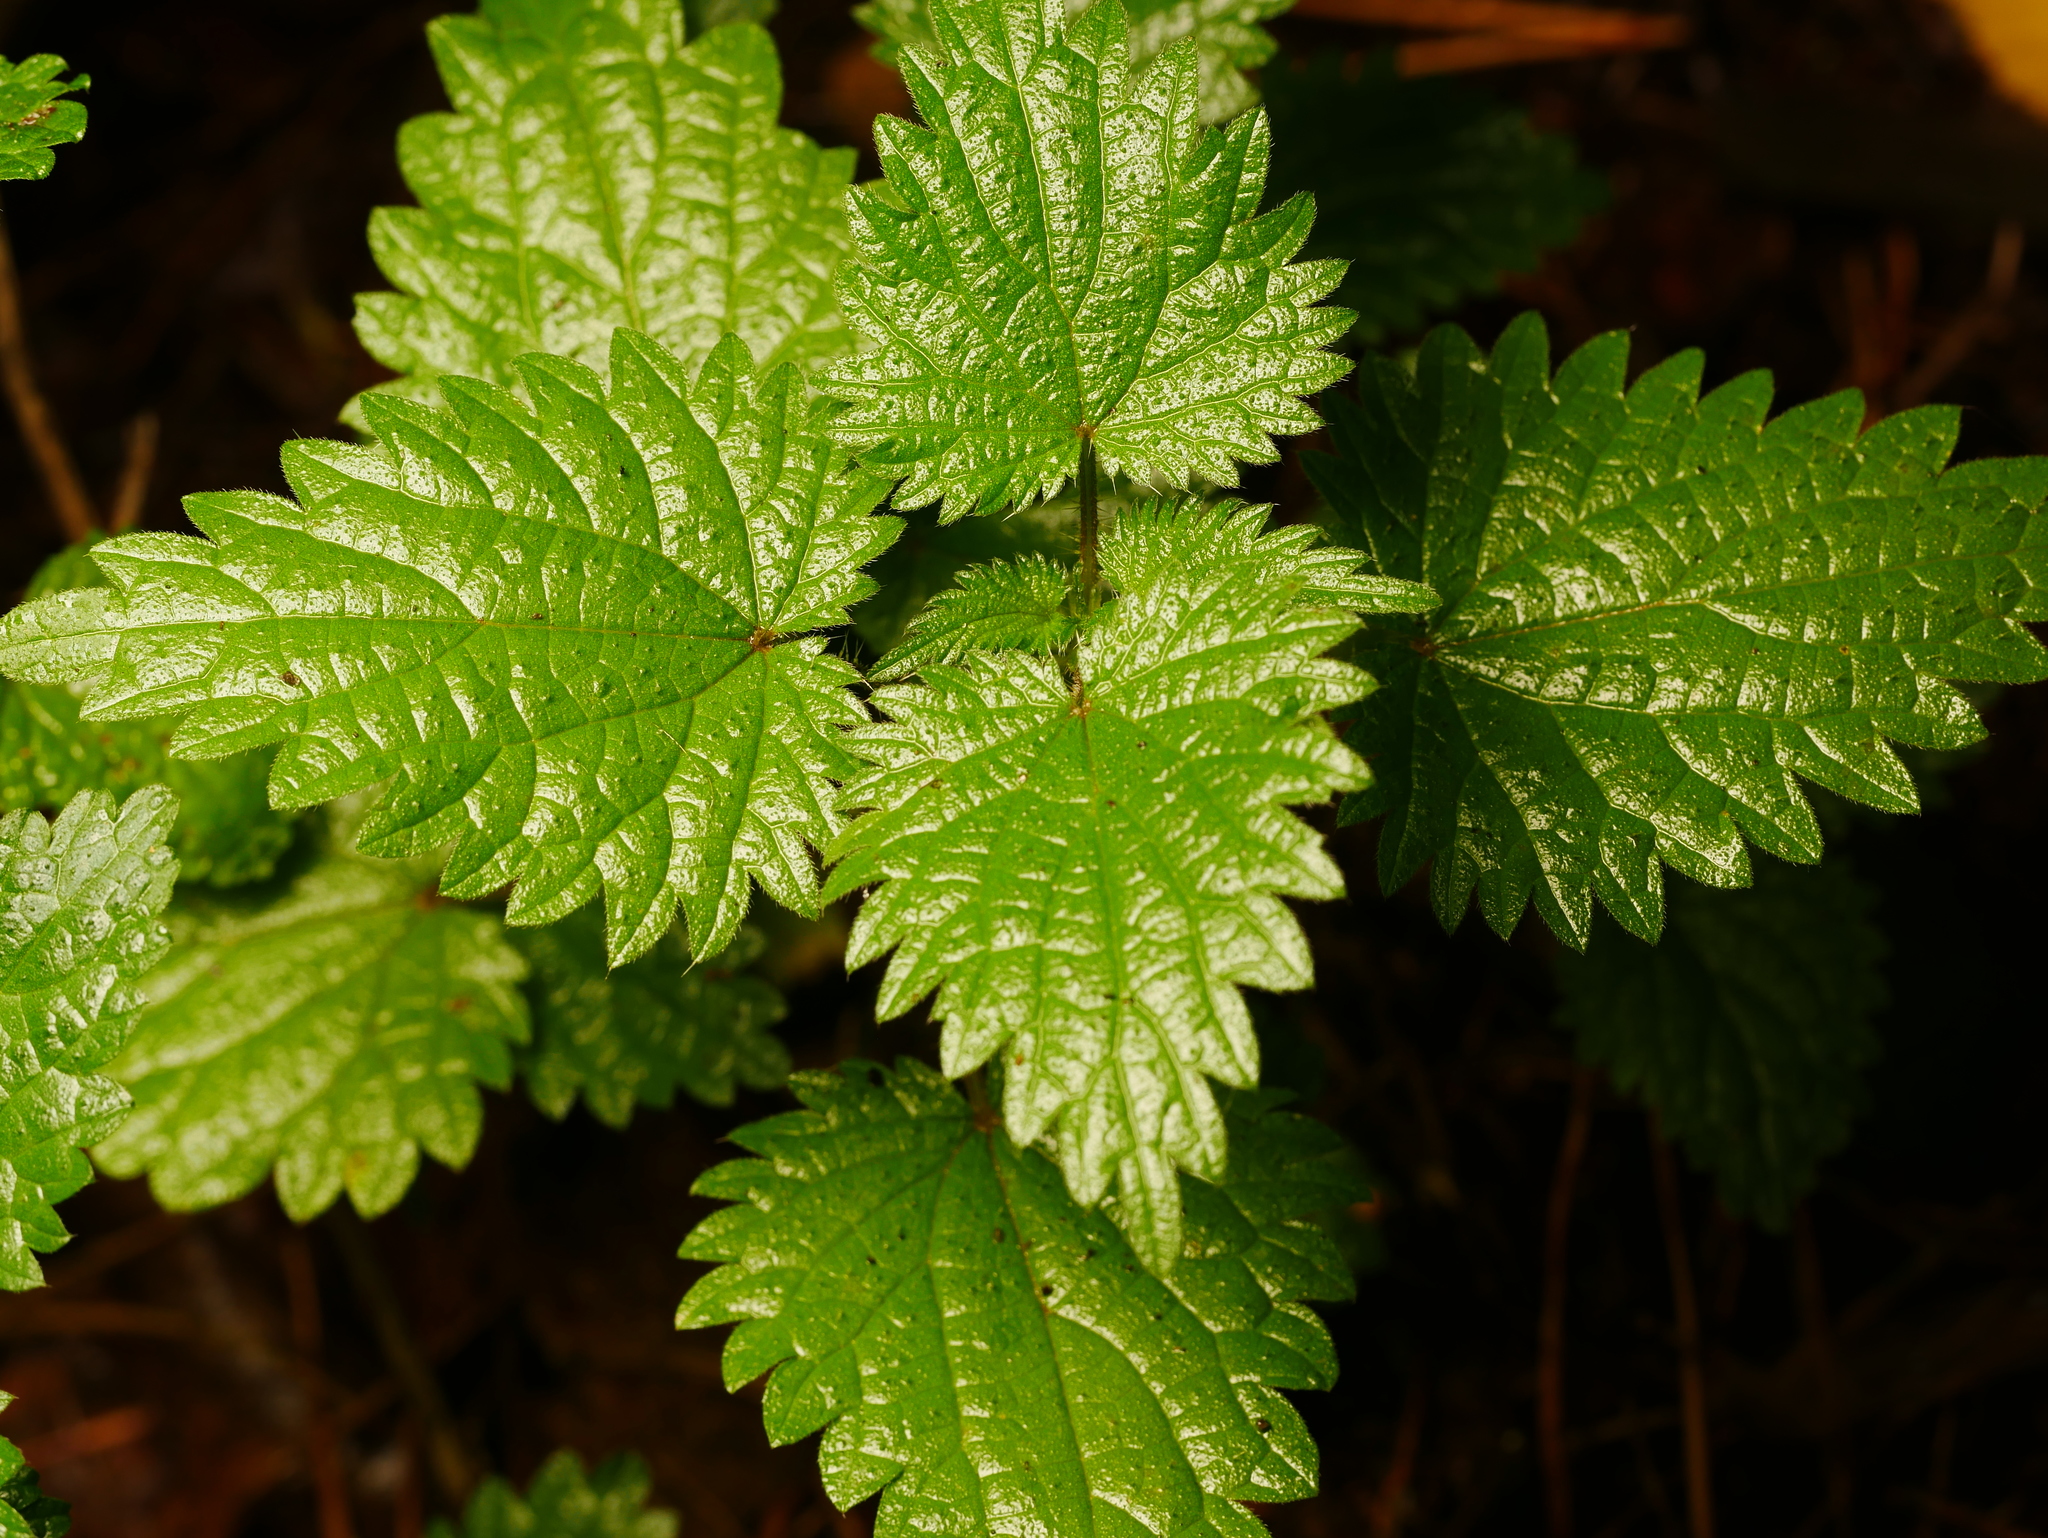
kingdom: Plantae
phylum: Tracheophyta
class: Magnoliopsida
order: Rosales
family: Urticaceae
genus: Urtica
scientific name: Urtica dioica
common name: Common nettle
